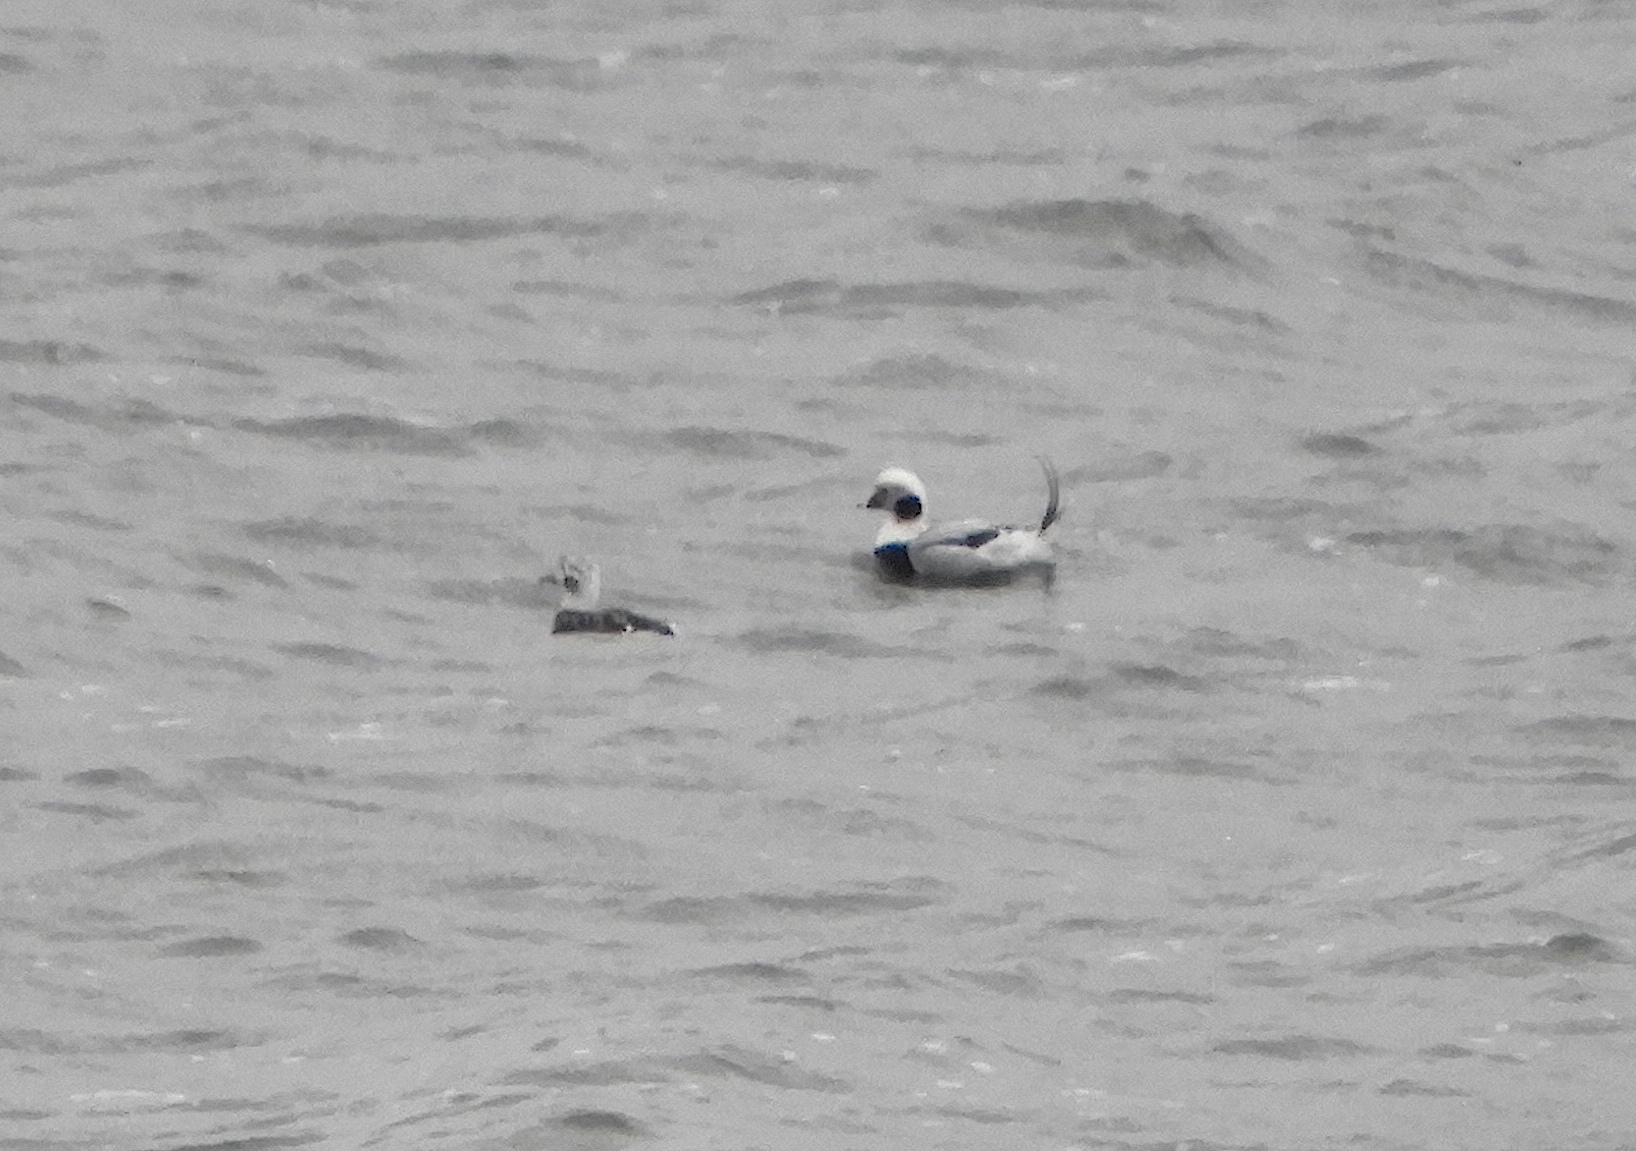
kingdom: Animalia
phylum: Chordata
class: Aves
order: Anseriformes
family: Anatidae
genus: Clangula
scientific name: Clangula hyemalis
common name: Long-tailed duck
